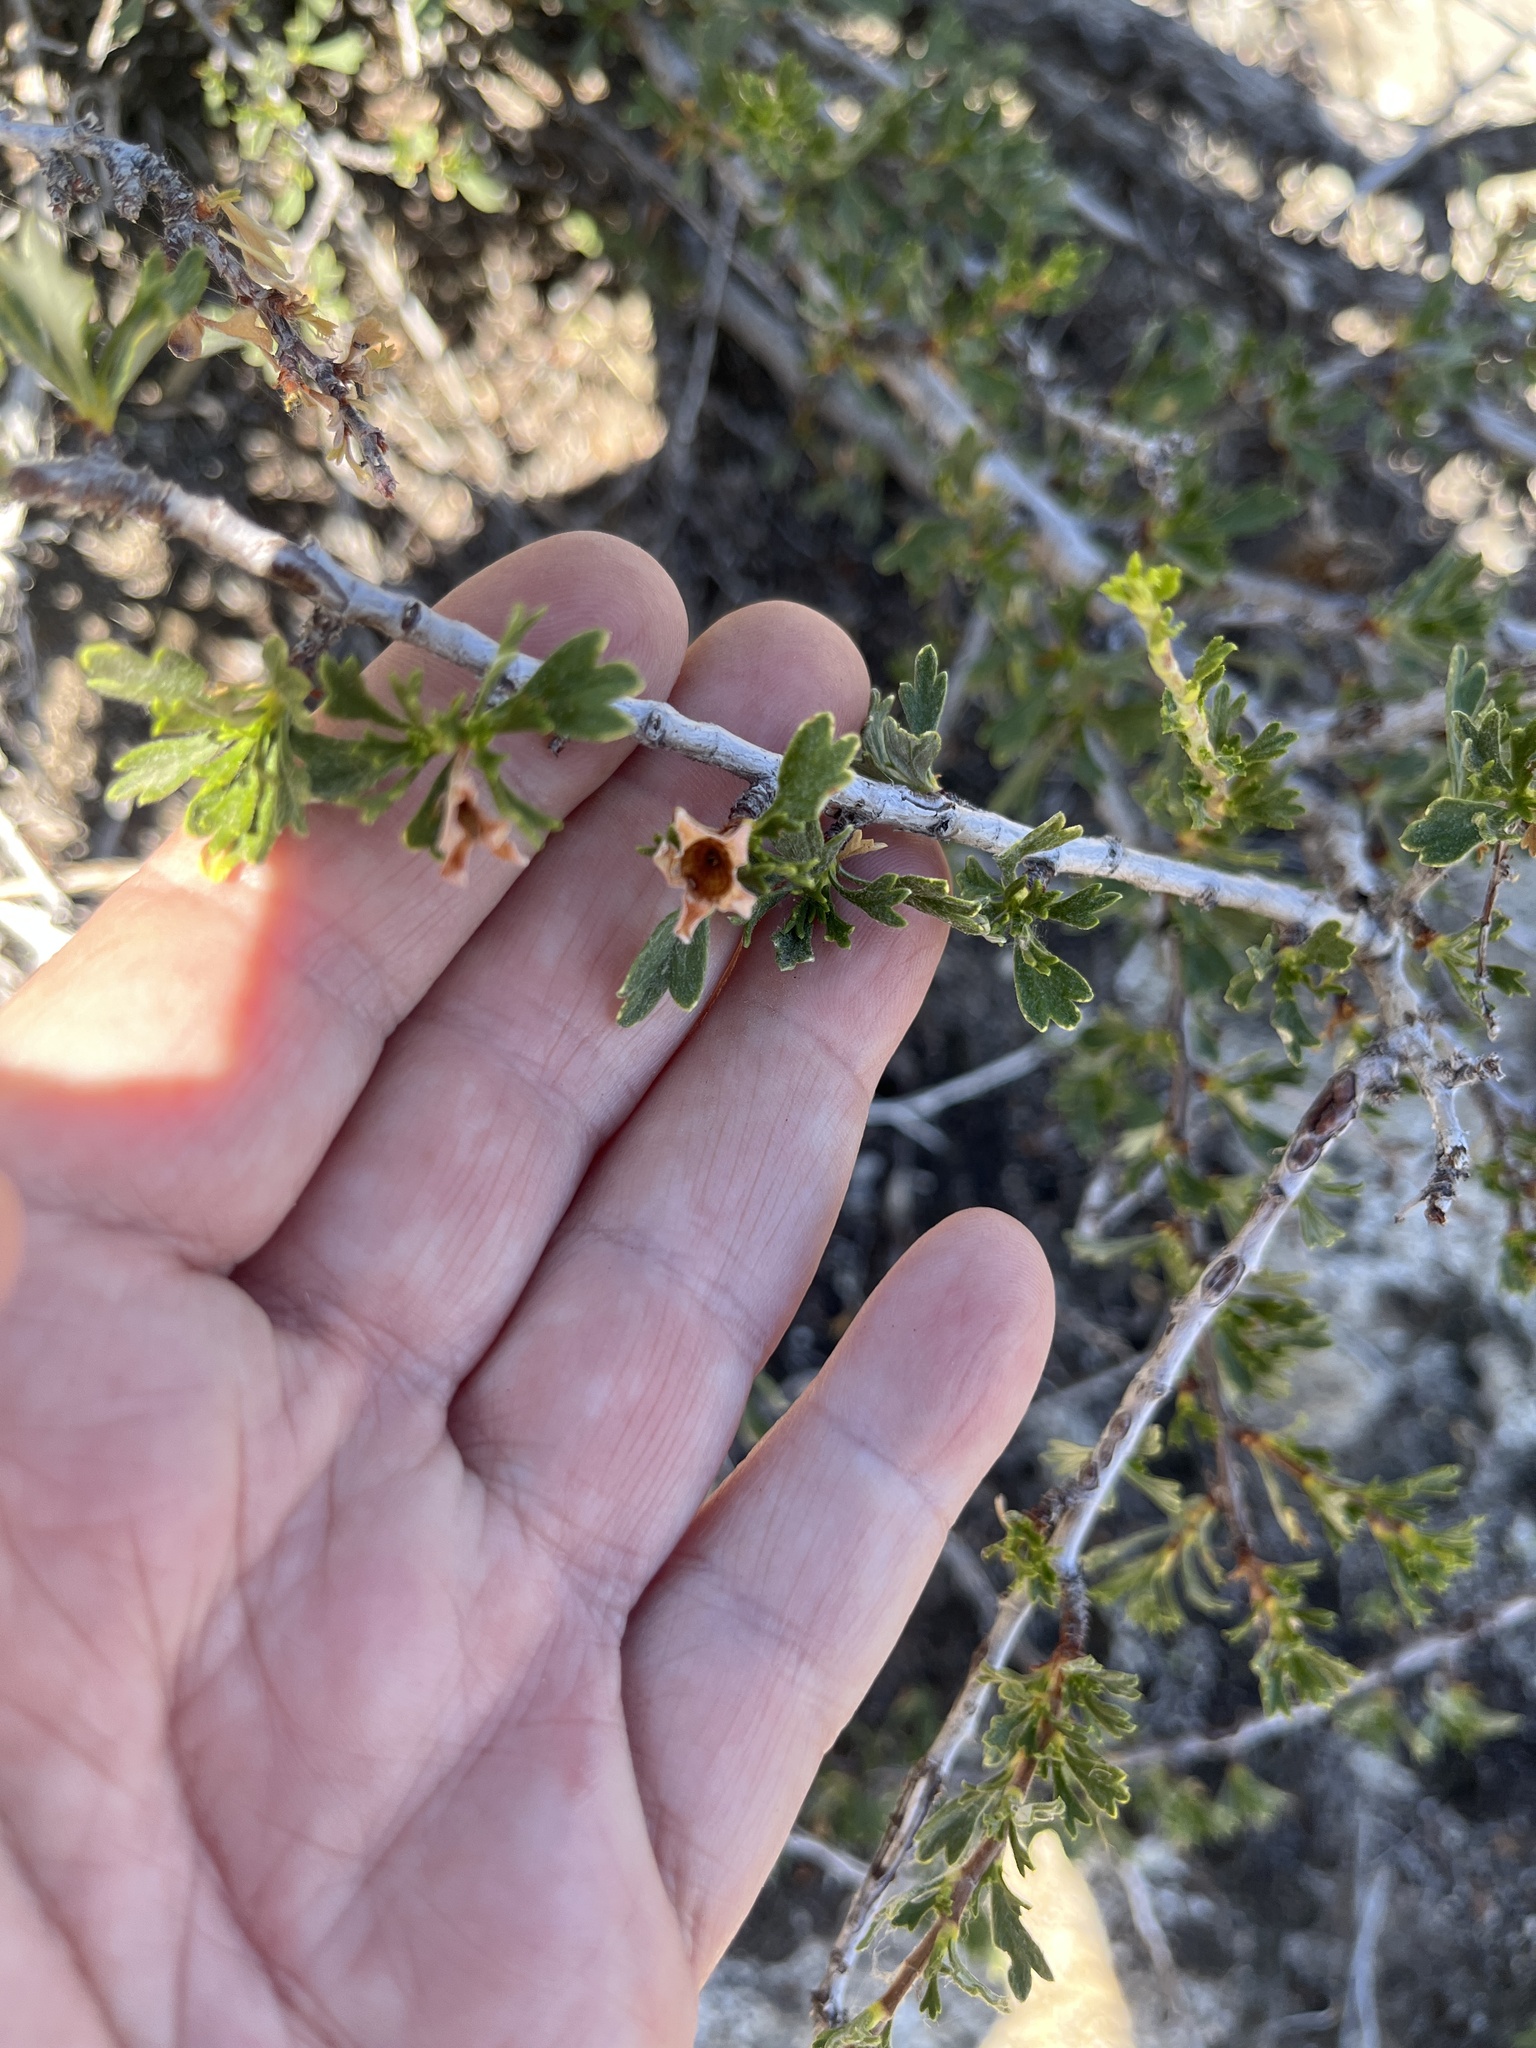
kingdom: Plantae
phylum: Tracheophyta
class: Magnoliopsida
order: Rosales
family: Rosaceae
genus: Purshia
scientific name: Purshia tridentata
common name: Antelope bitterbrush
